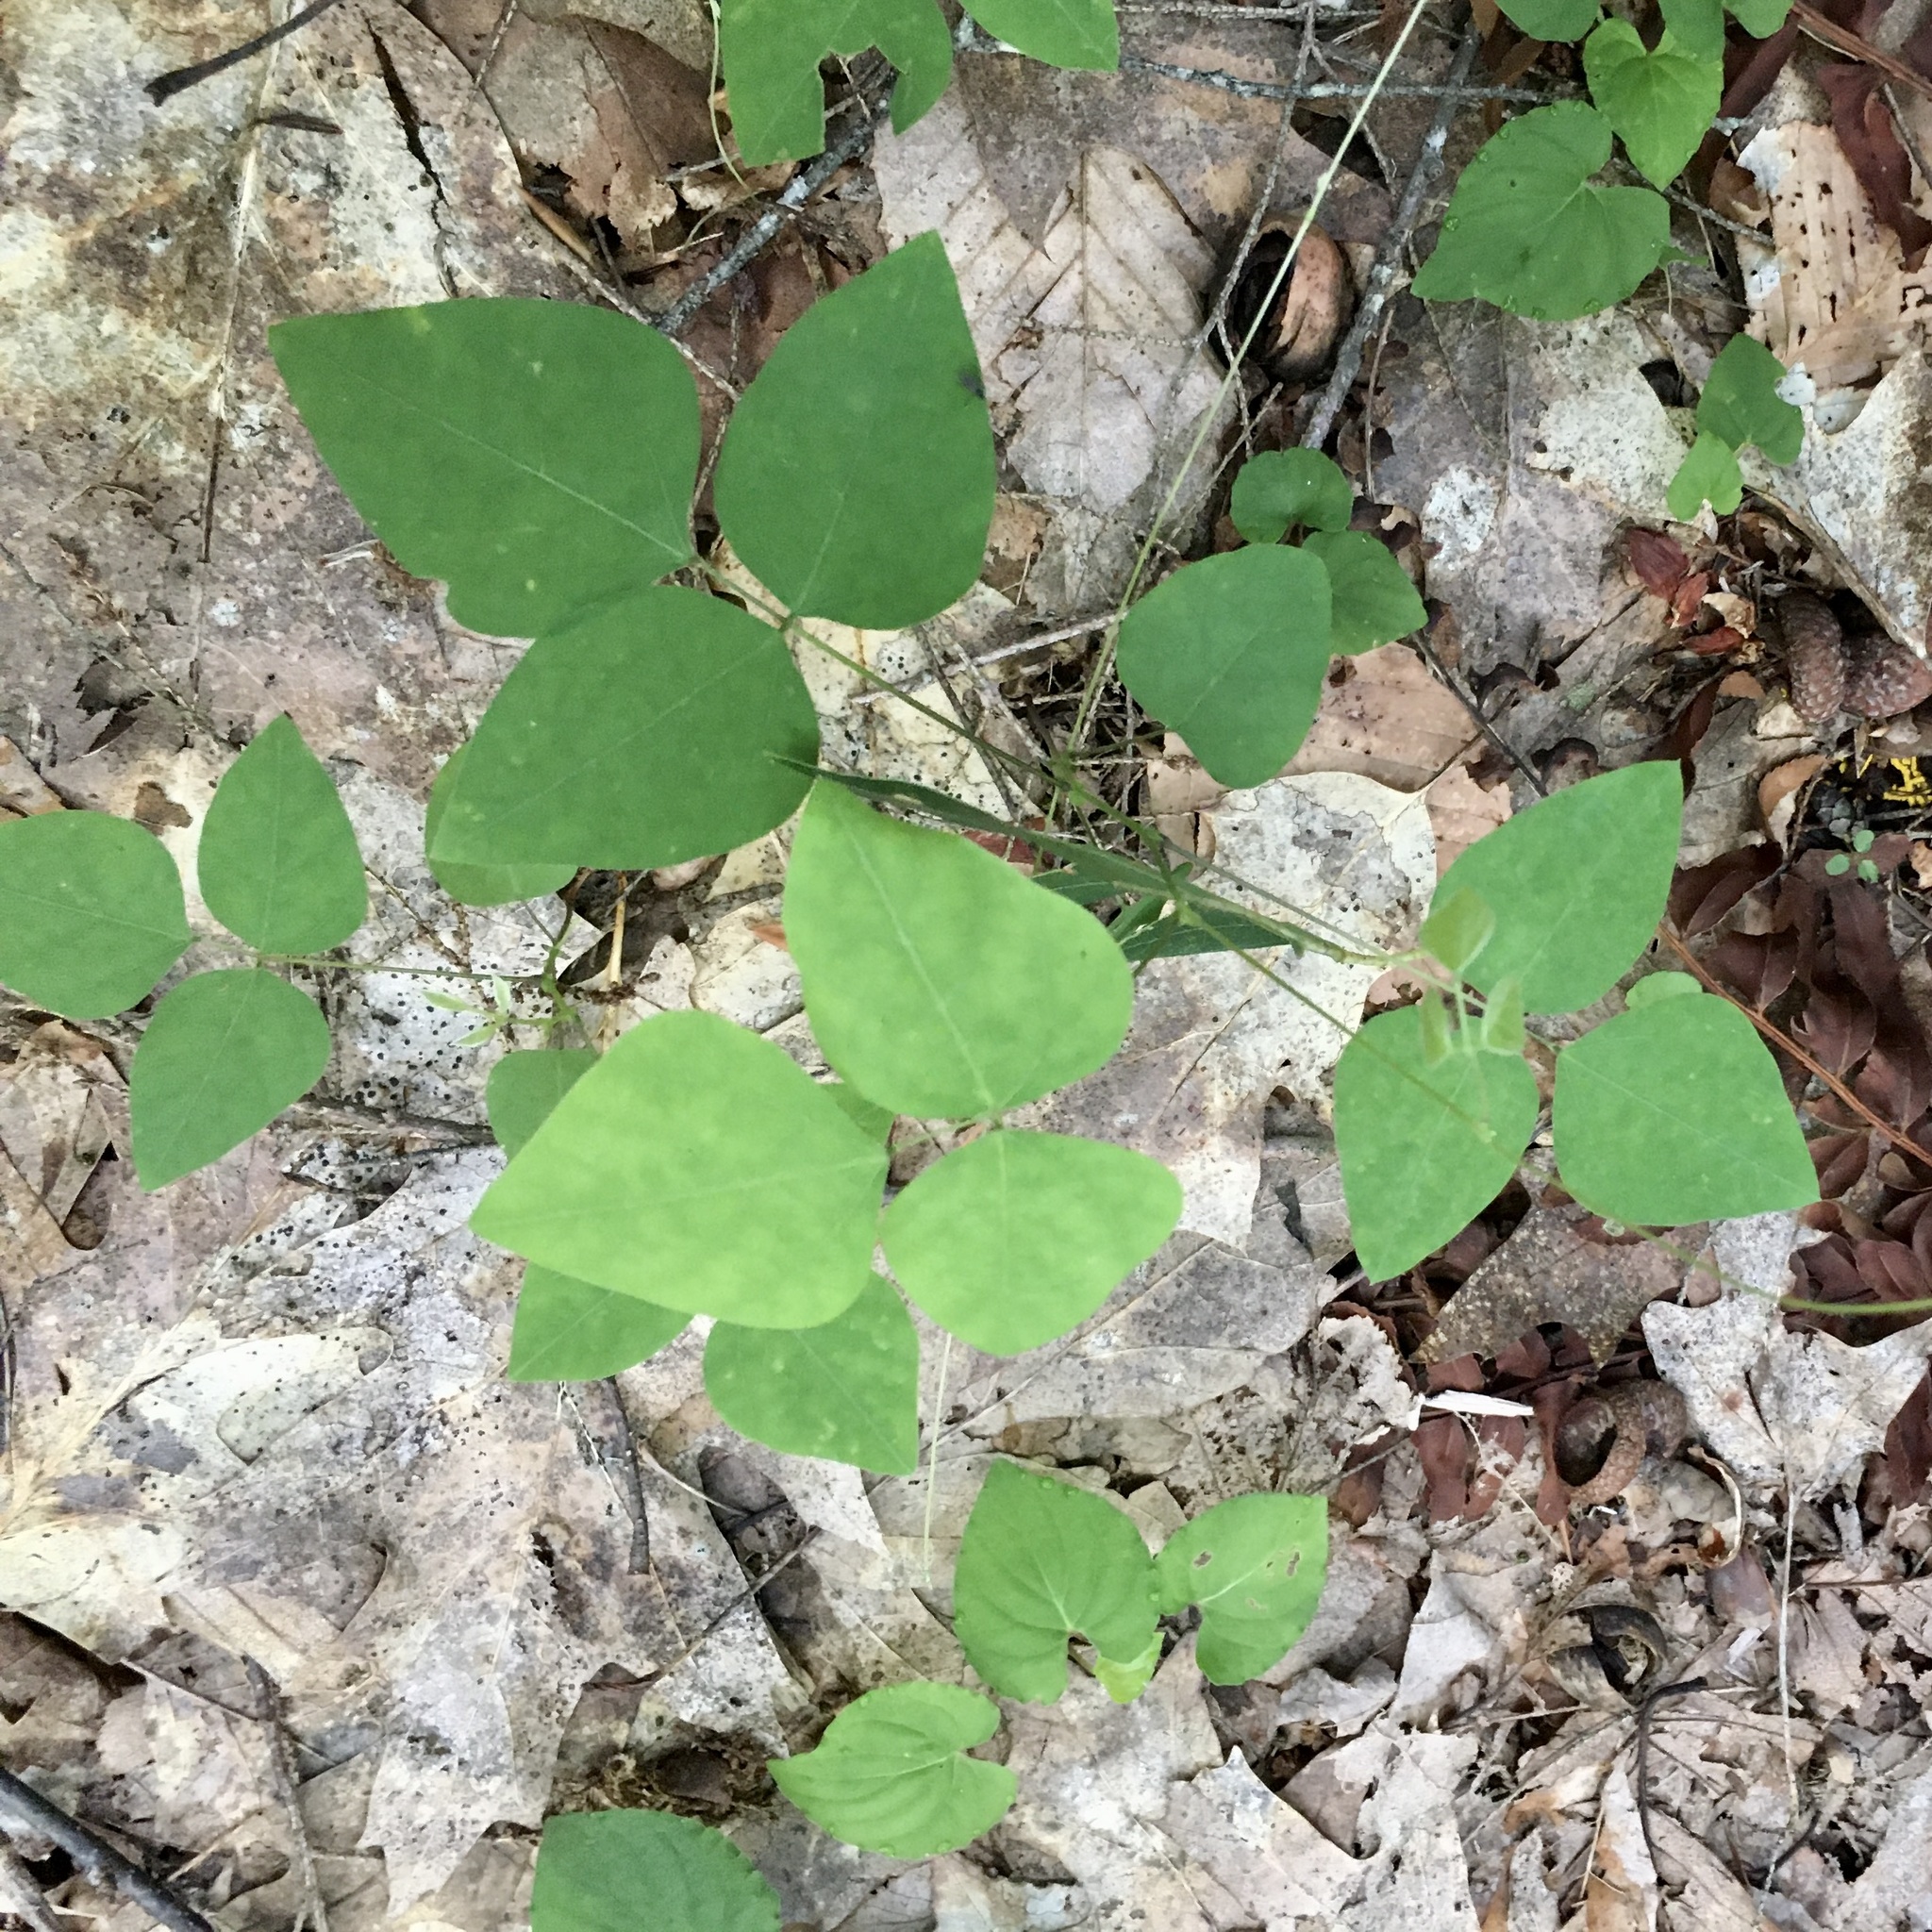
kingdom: Plantae
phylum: Tracheophyta
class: Magnoliopsida
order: Fabales
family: Fabaceae
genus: Amphicarpaea
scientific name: Amphicarpaea bracteata
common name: American hog peanut
